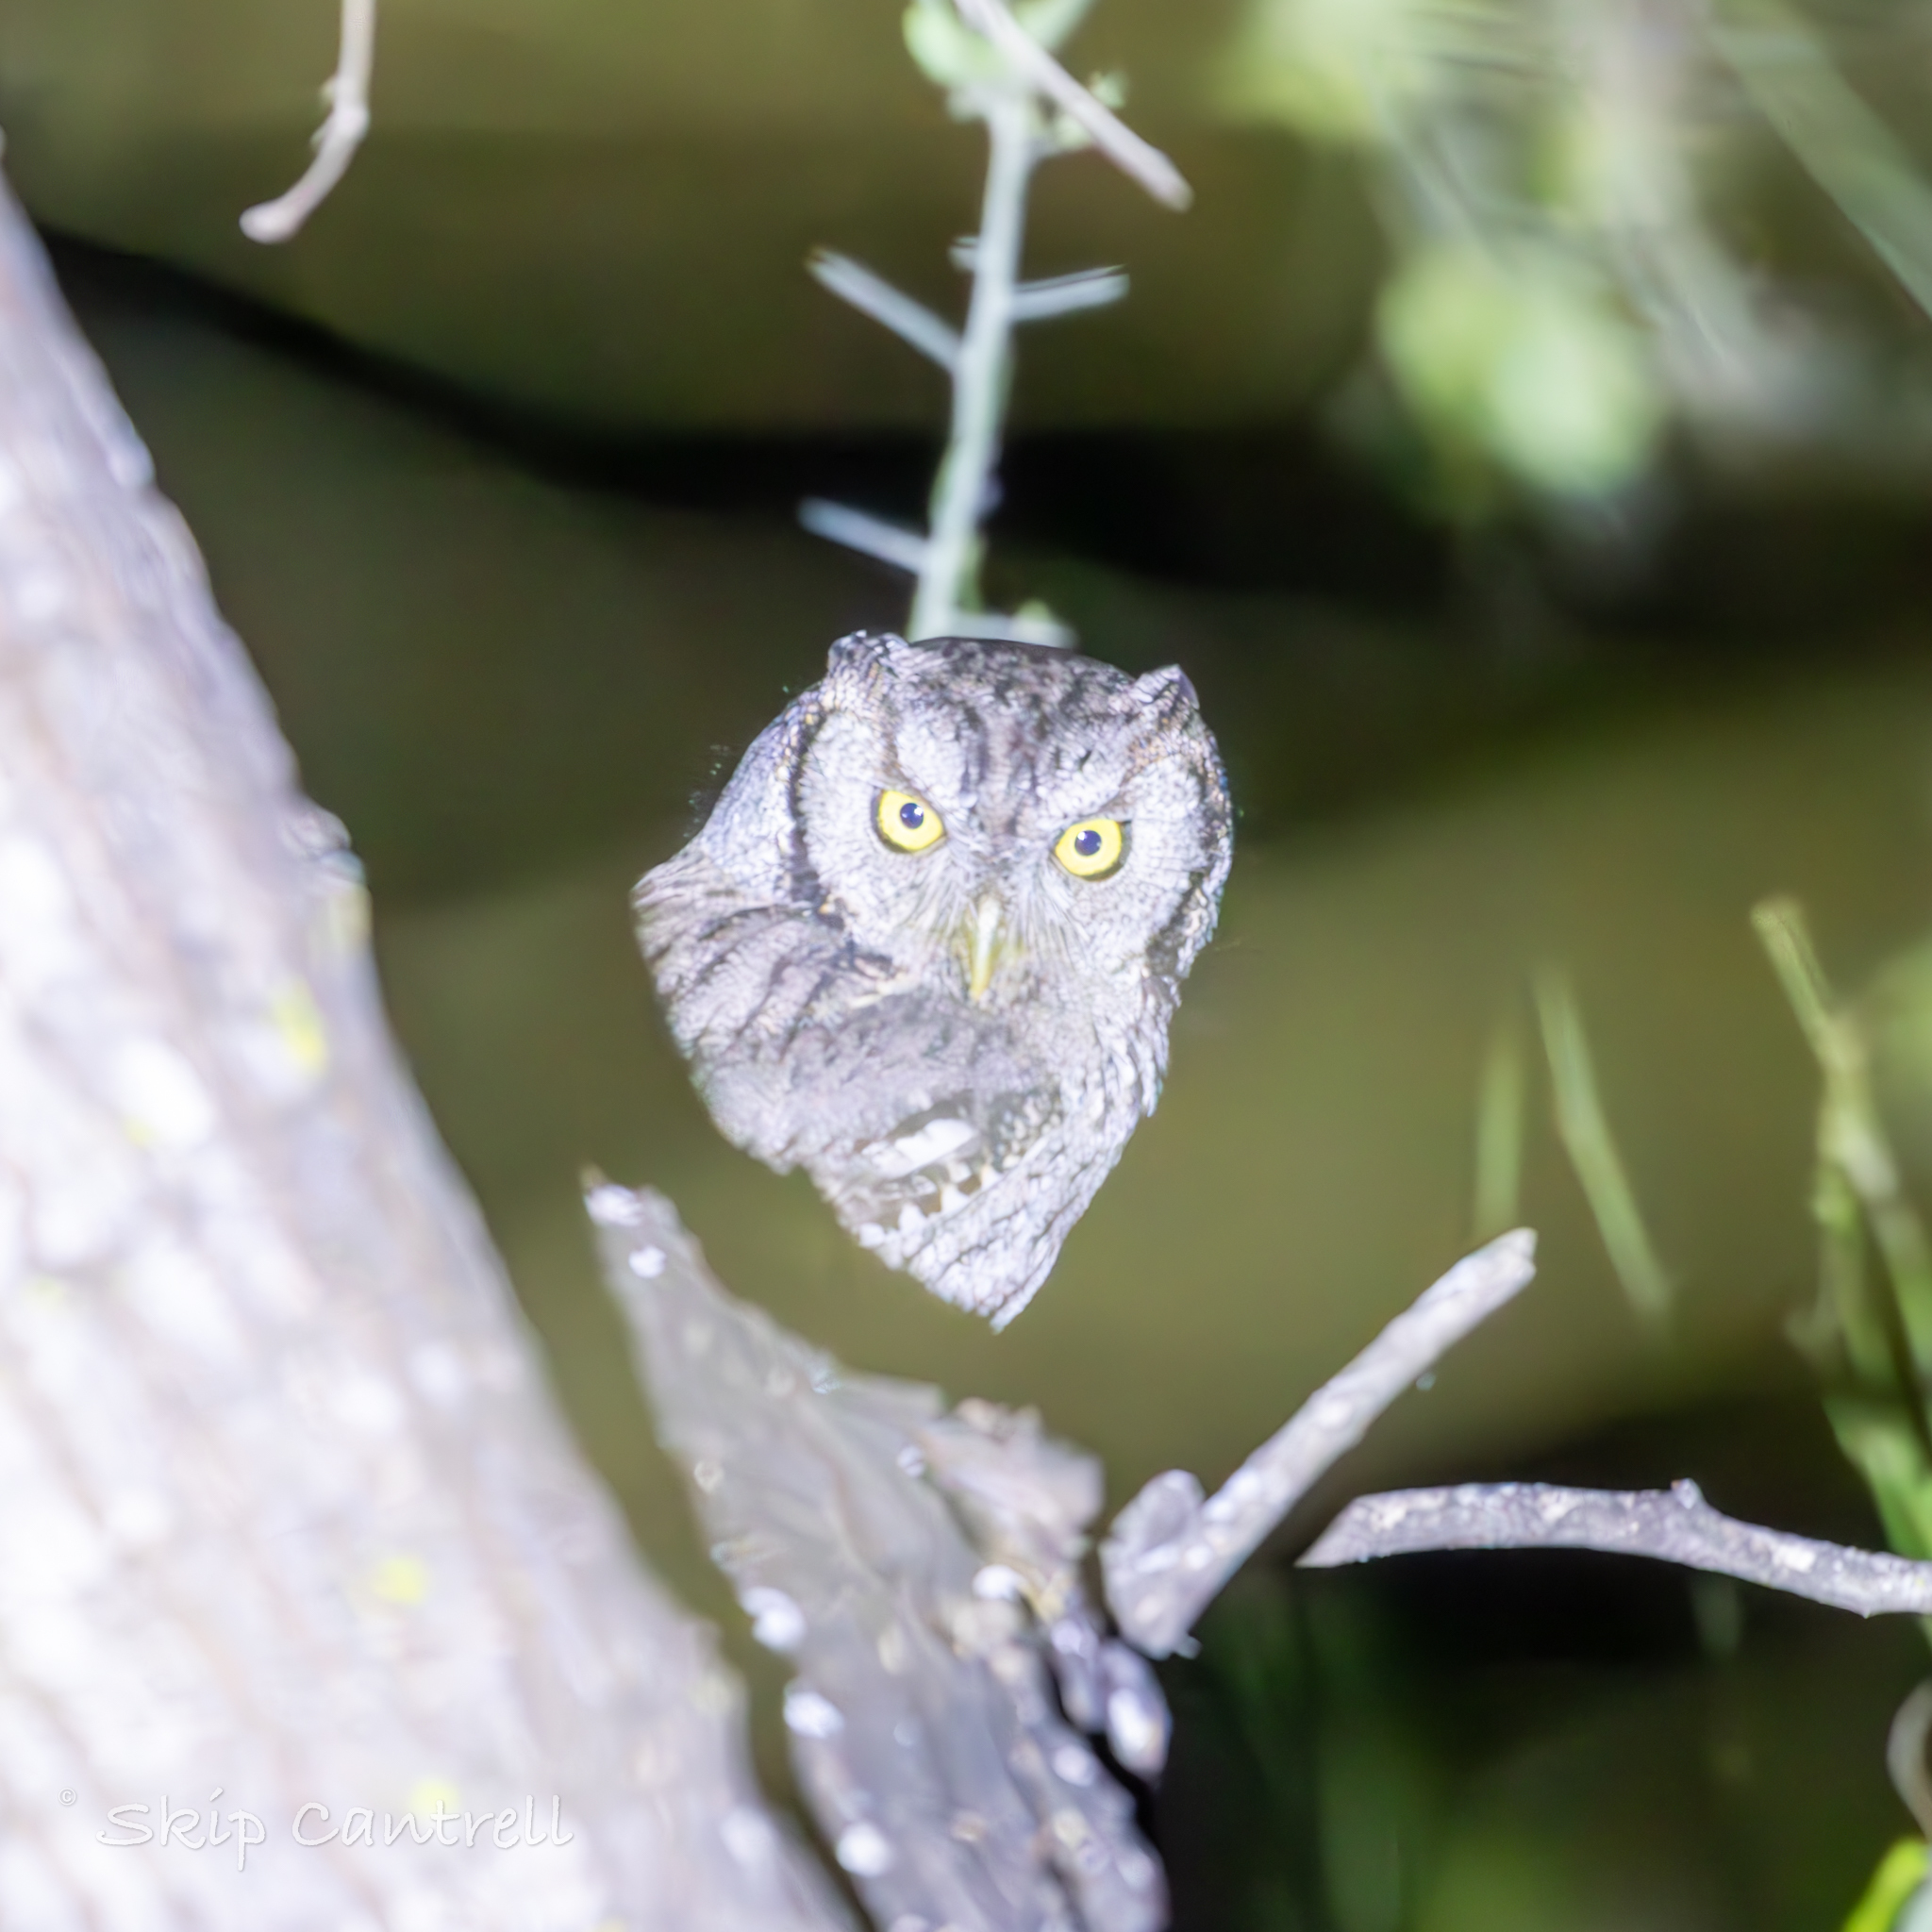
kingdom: Animalia
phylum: Chordata
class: Aves
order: Strigiformes
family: Strigidae
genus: Megascops
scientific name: Megascops asio
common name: Eastern screech-owl
